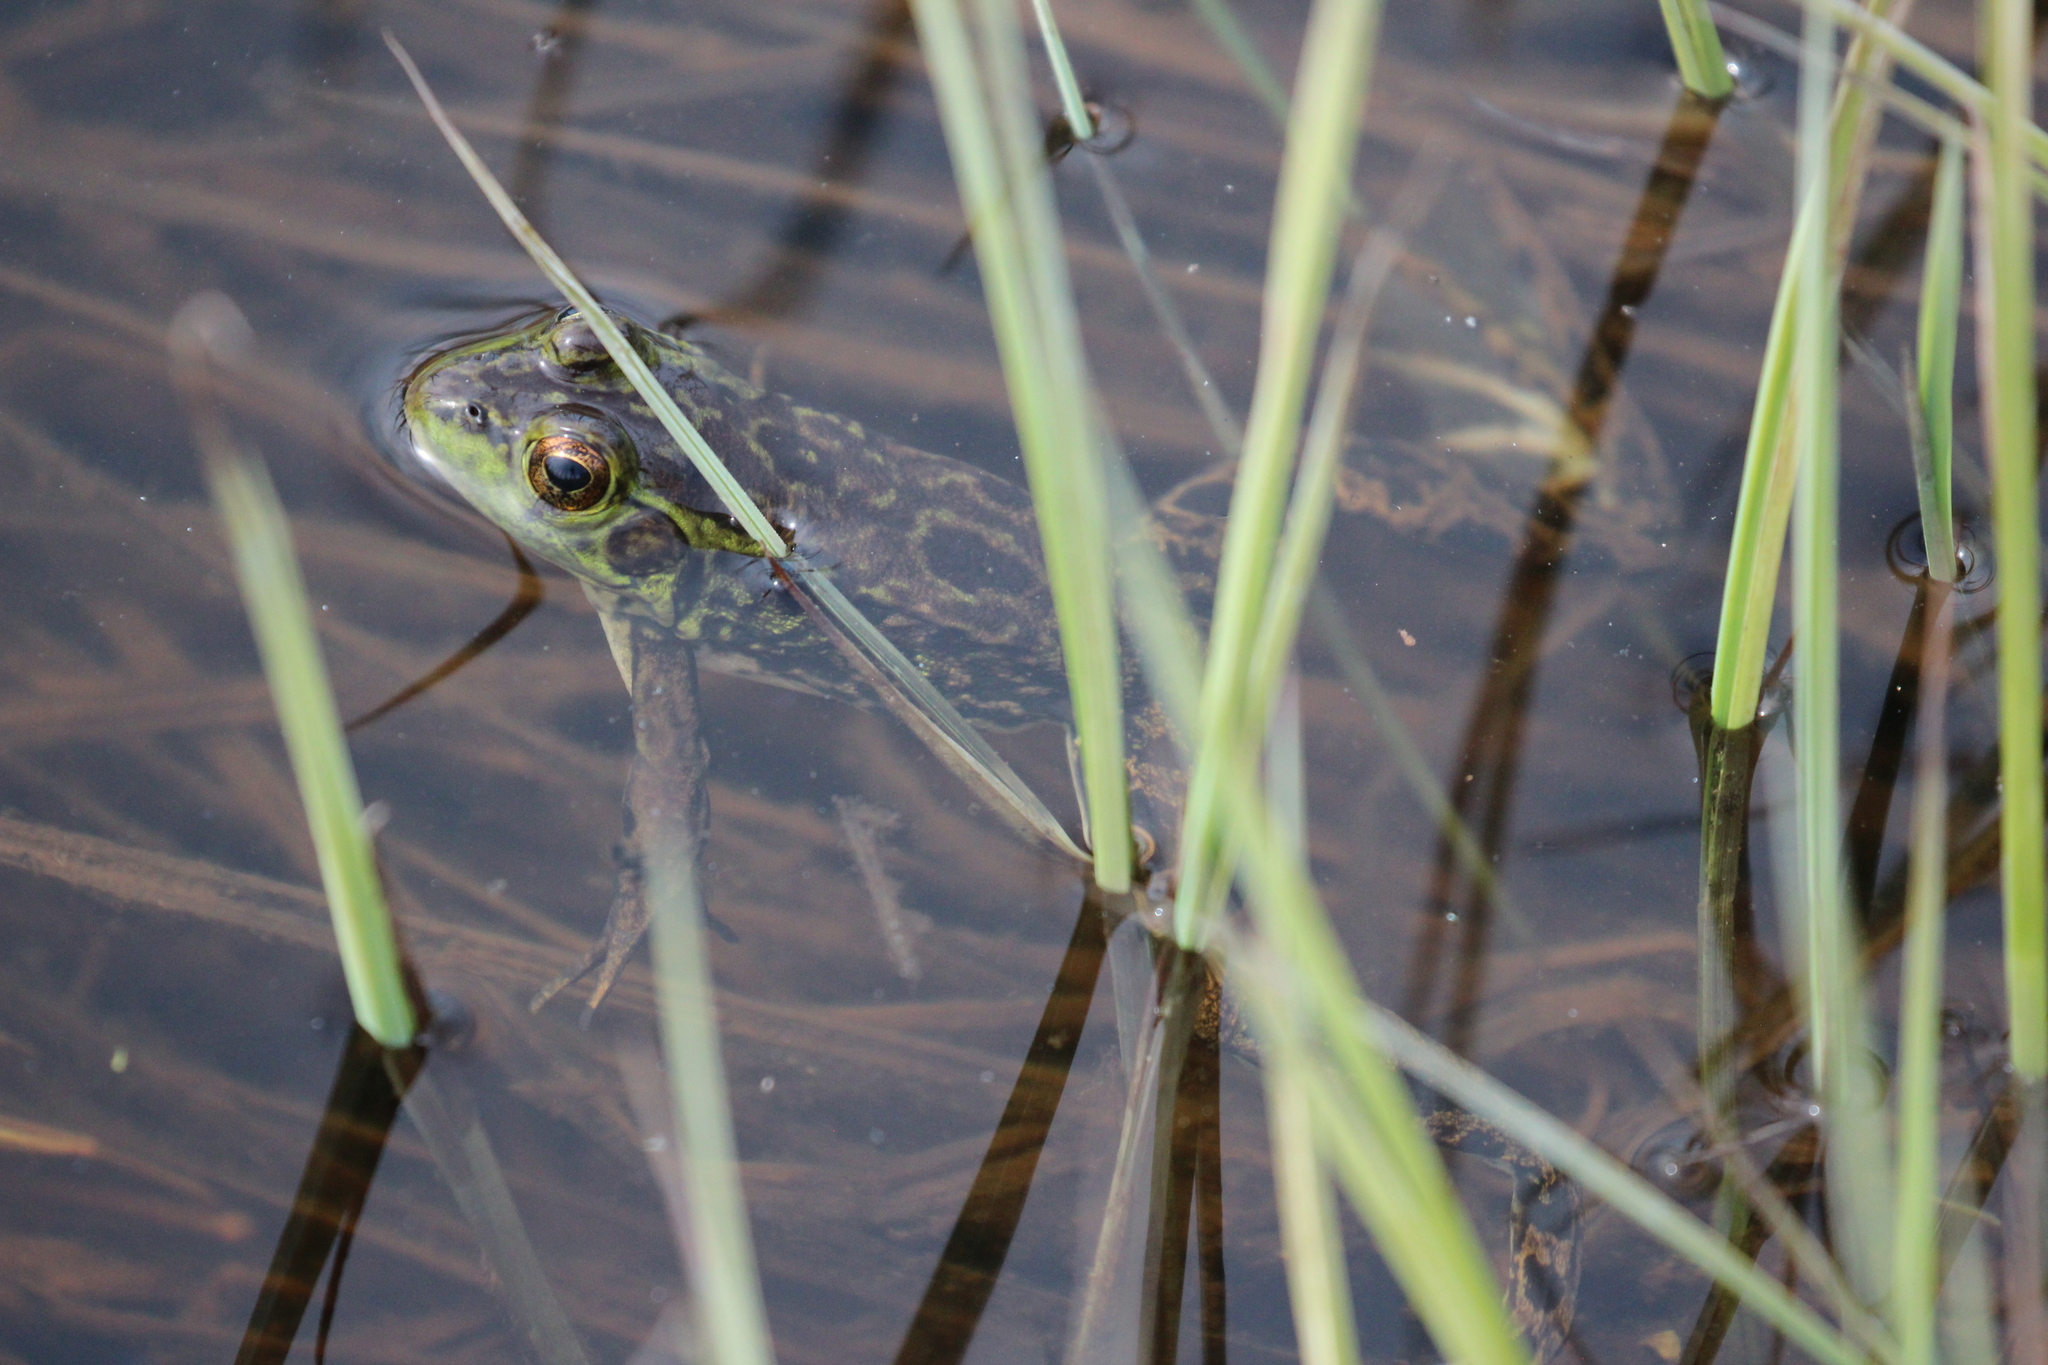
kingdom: Animalia
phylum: Chordata
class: Amphibia
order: Anura
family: Ranidae
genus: Lithobates
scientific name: Lithobates septentrionalis
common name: Mink frog
